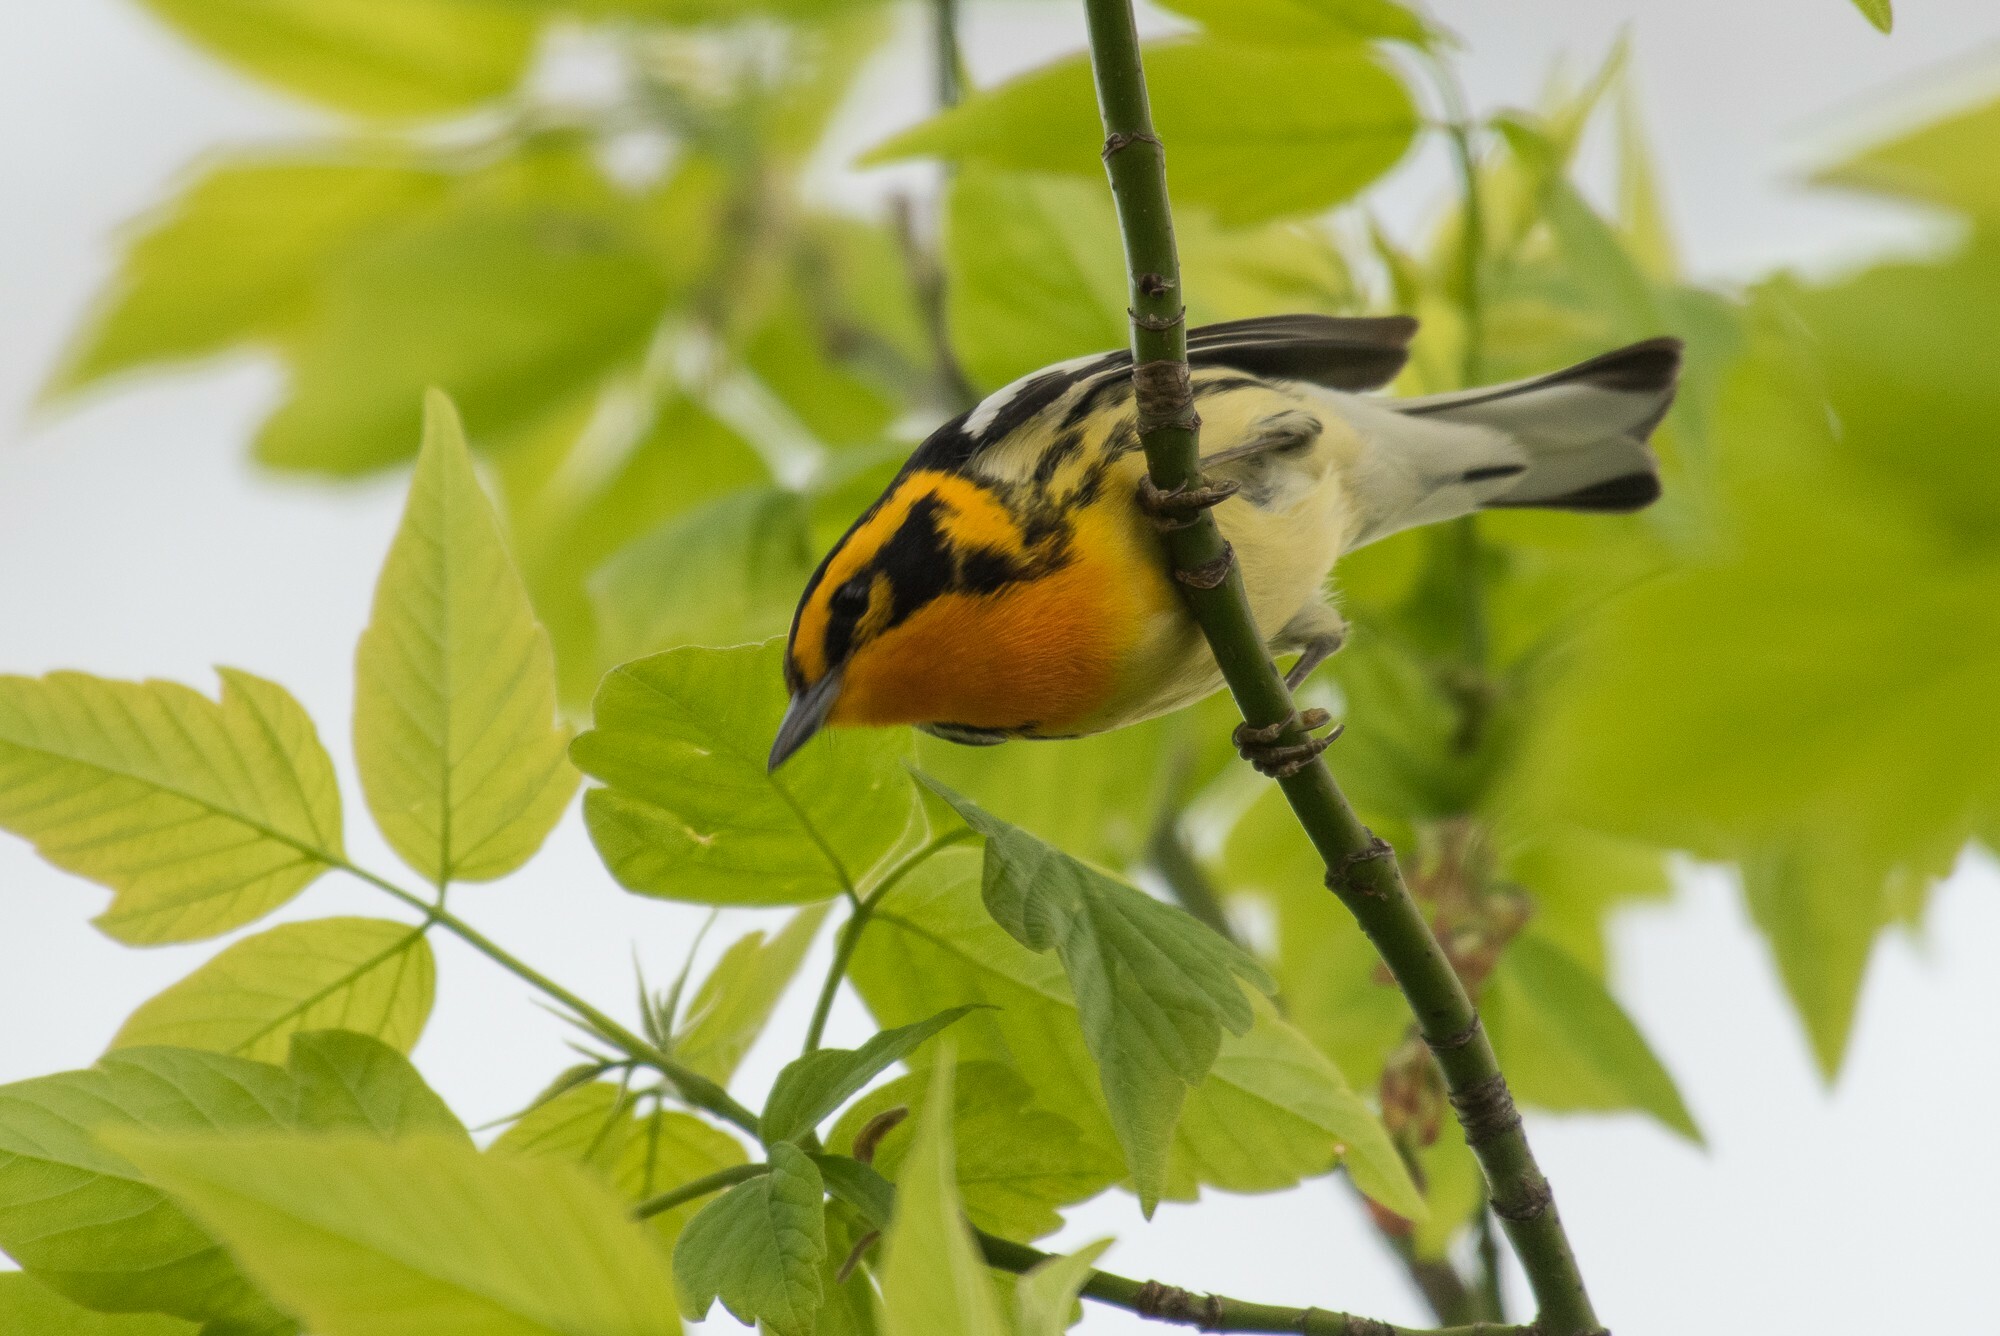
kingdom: Animalia
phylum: Chordata
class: Aves
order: Passeriformes
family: Parulidae
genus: Setophaga
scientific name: Setophaga fusca
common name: Blackburnian warbler
